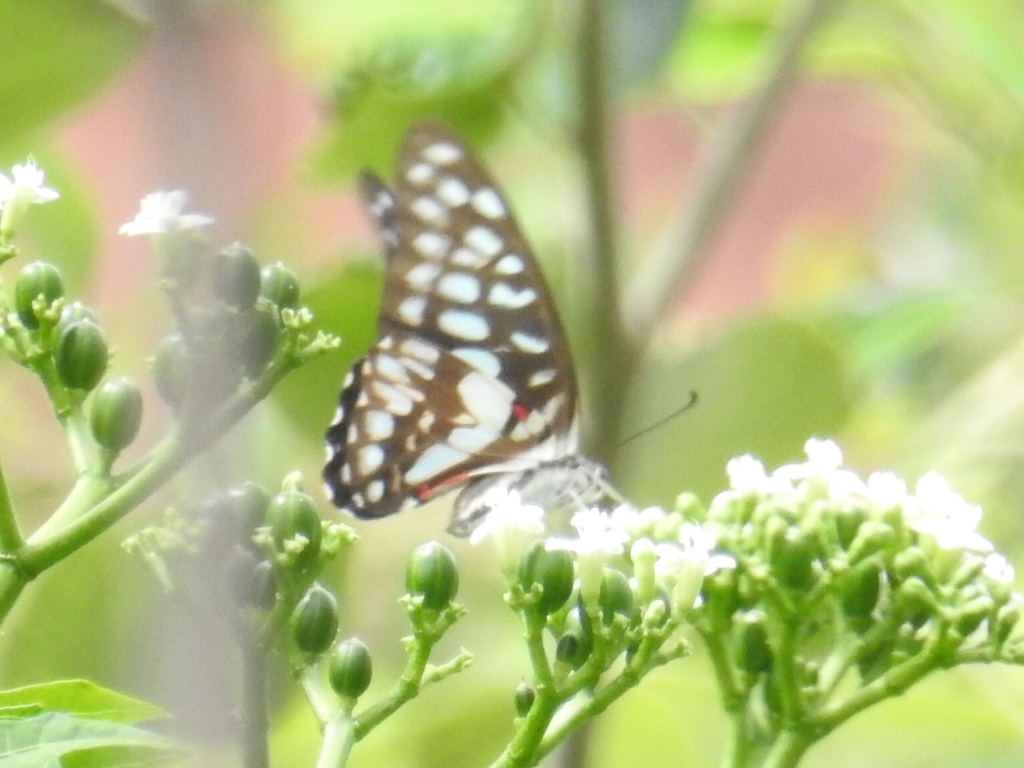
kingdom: Animalia
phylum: Arthropoda
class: Insecta
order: Lepidoptera
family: Papilionidae
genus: Graphium
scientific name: Graphium
